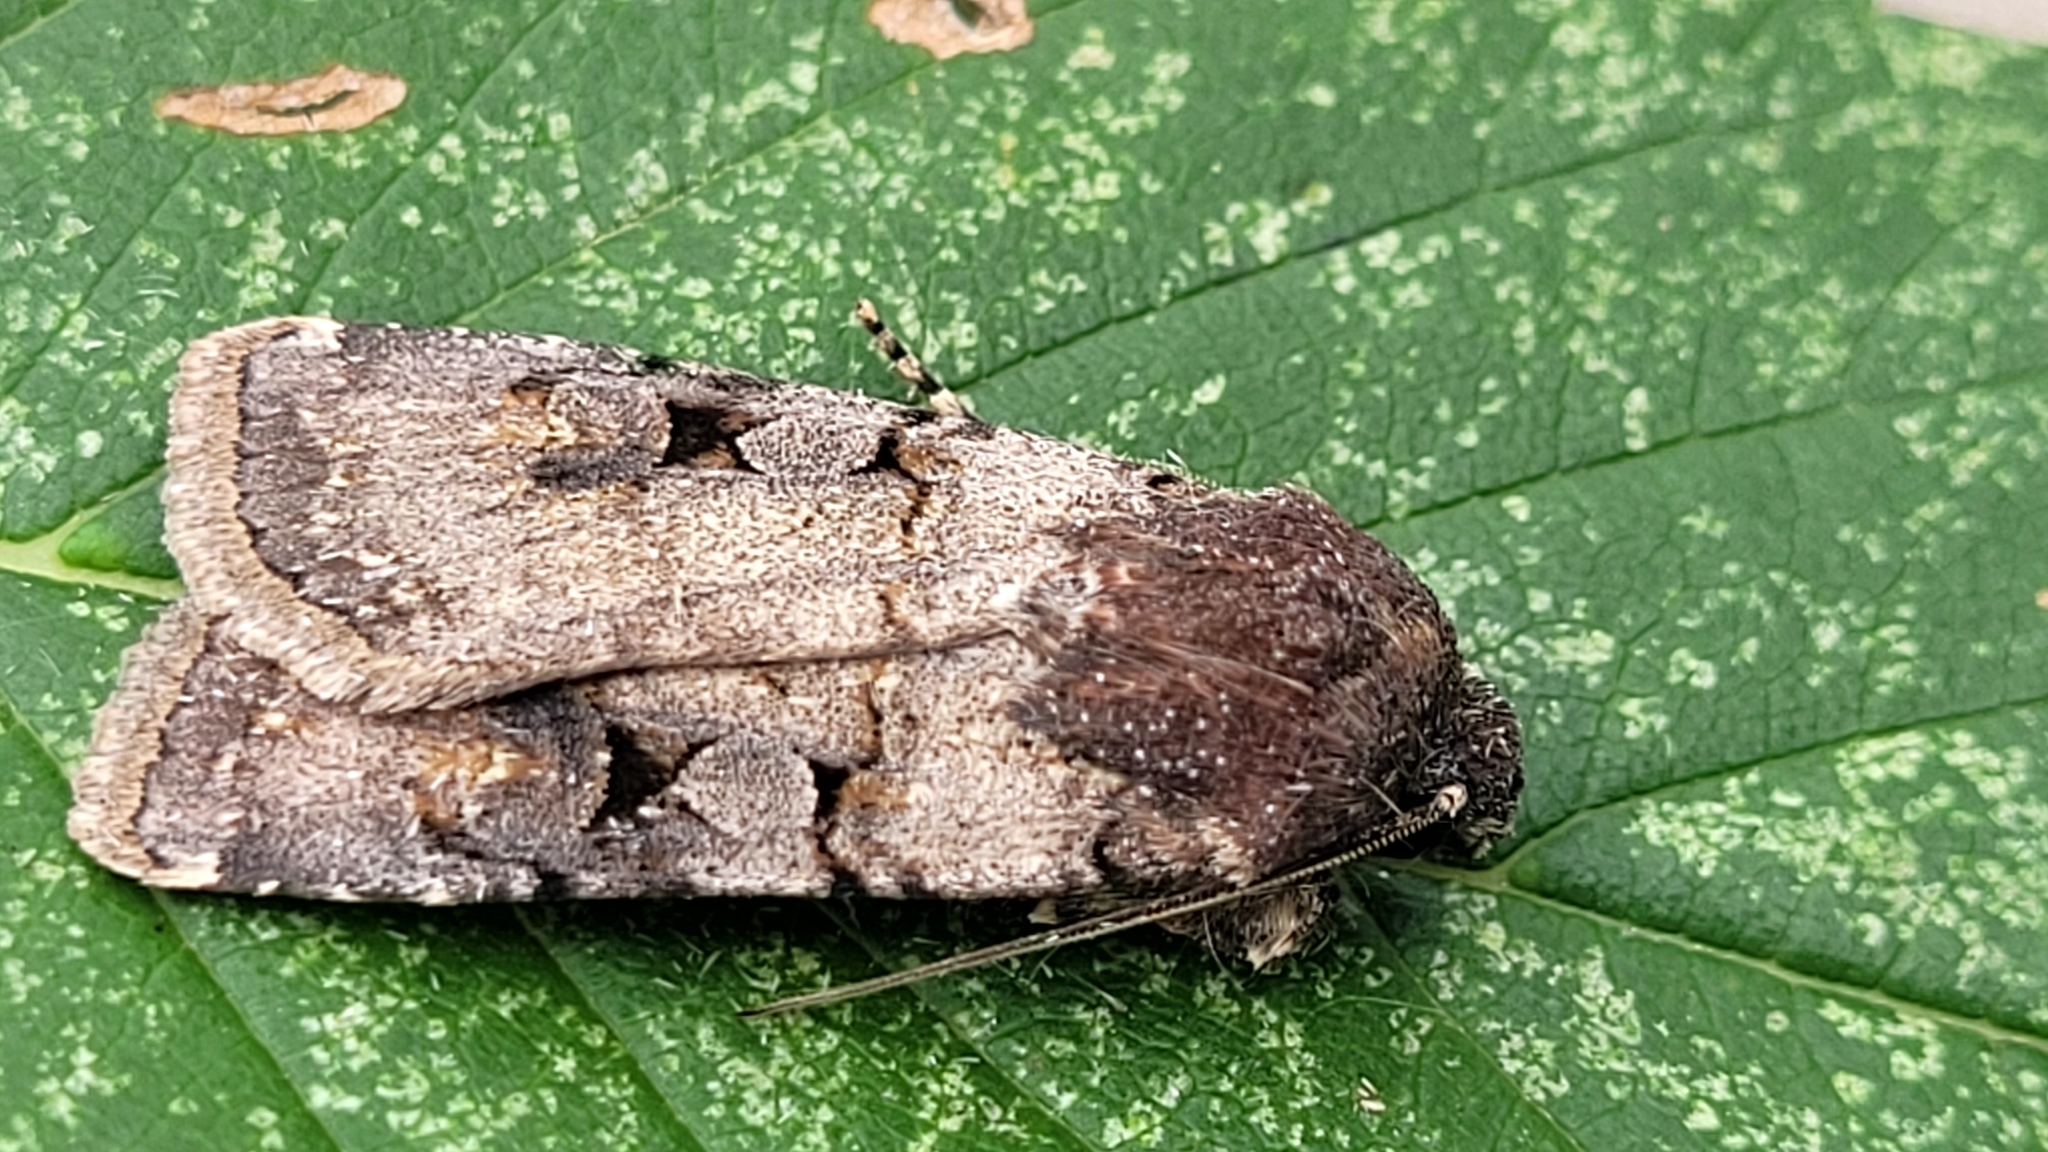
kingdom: Animalia
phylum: Arthropoda
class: Insecta
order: Lepidoptera
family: Noctuidae
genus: Euxoa
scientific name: Euxoa albipennis
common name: White-striped dart
